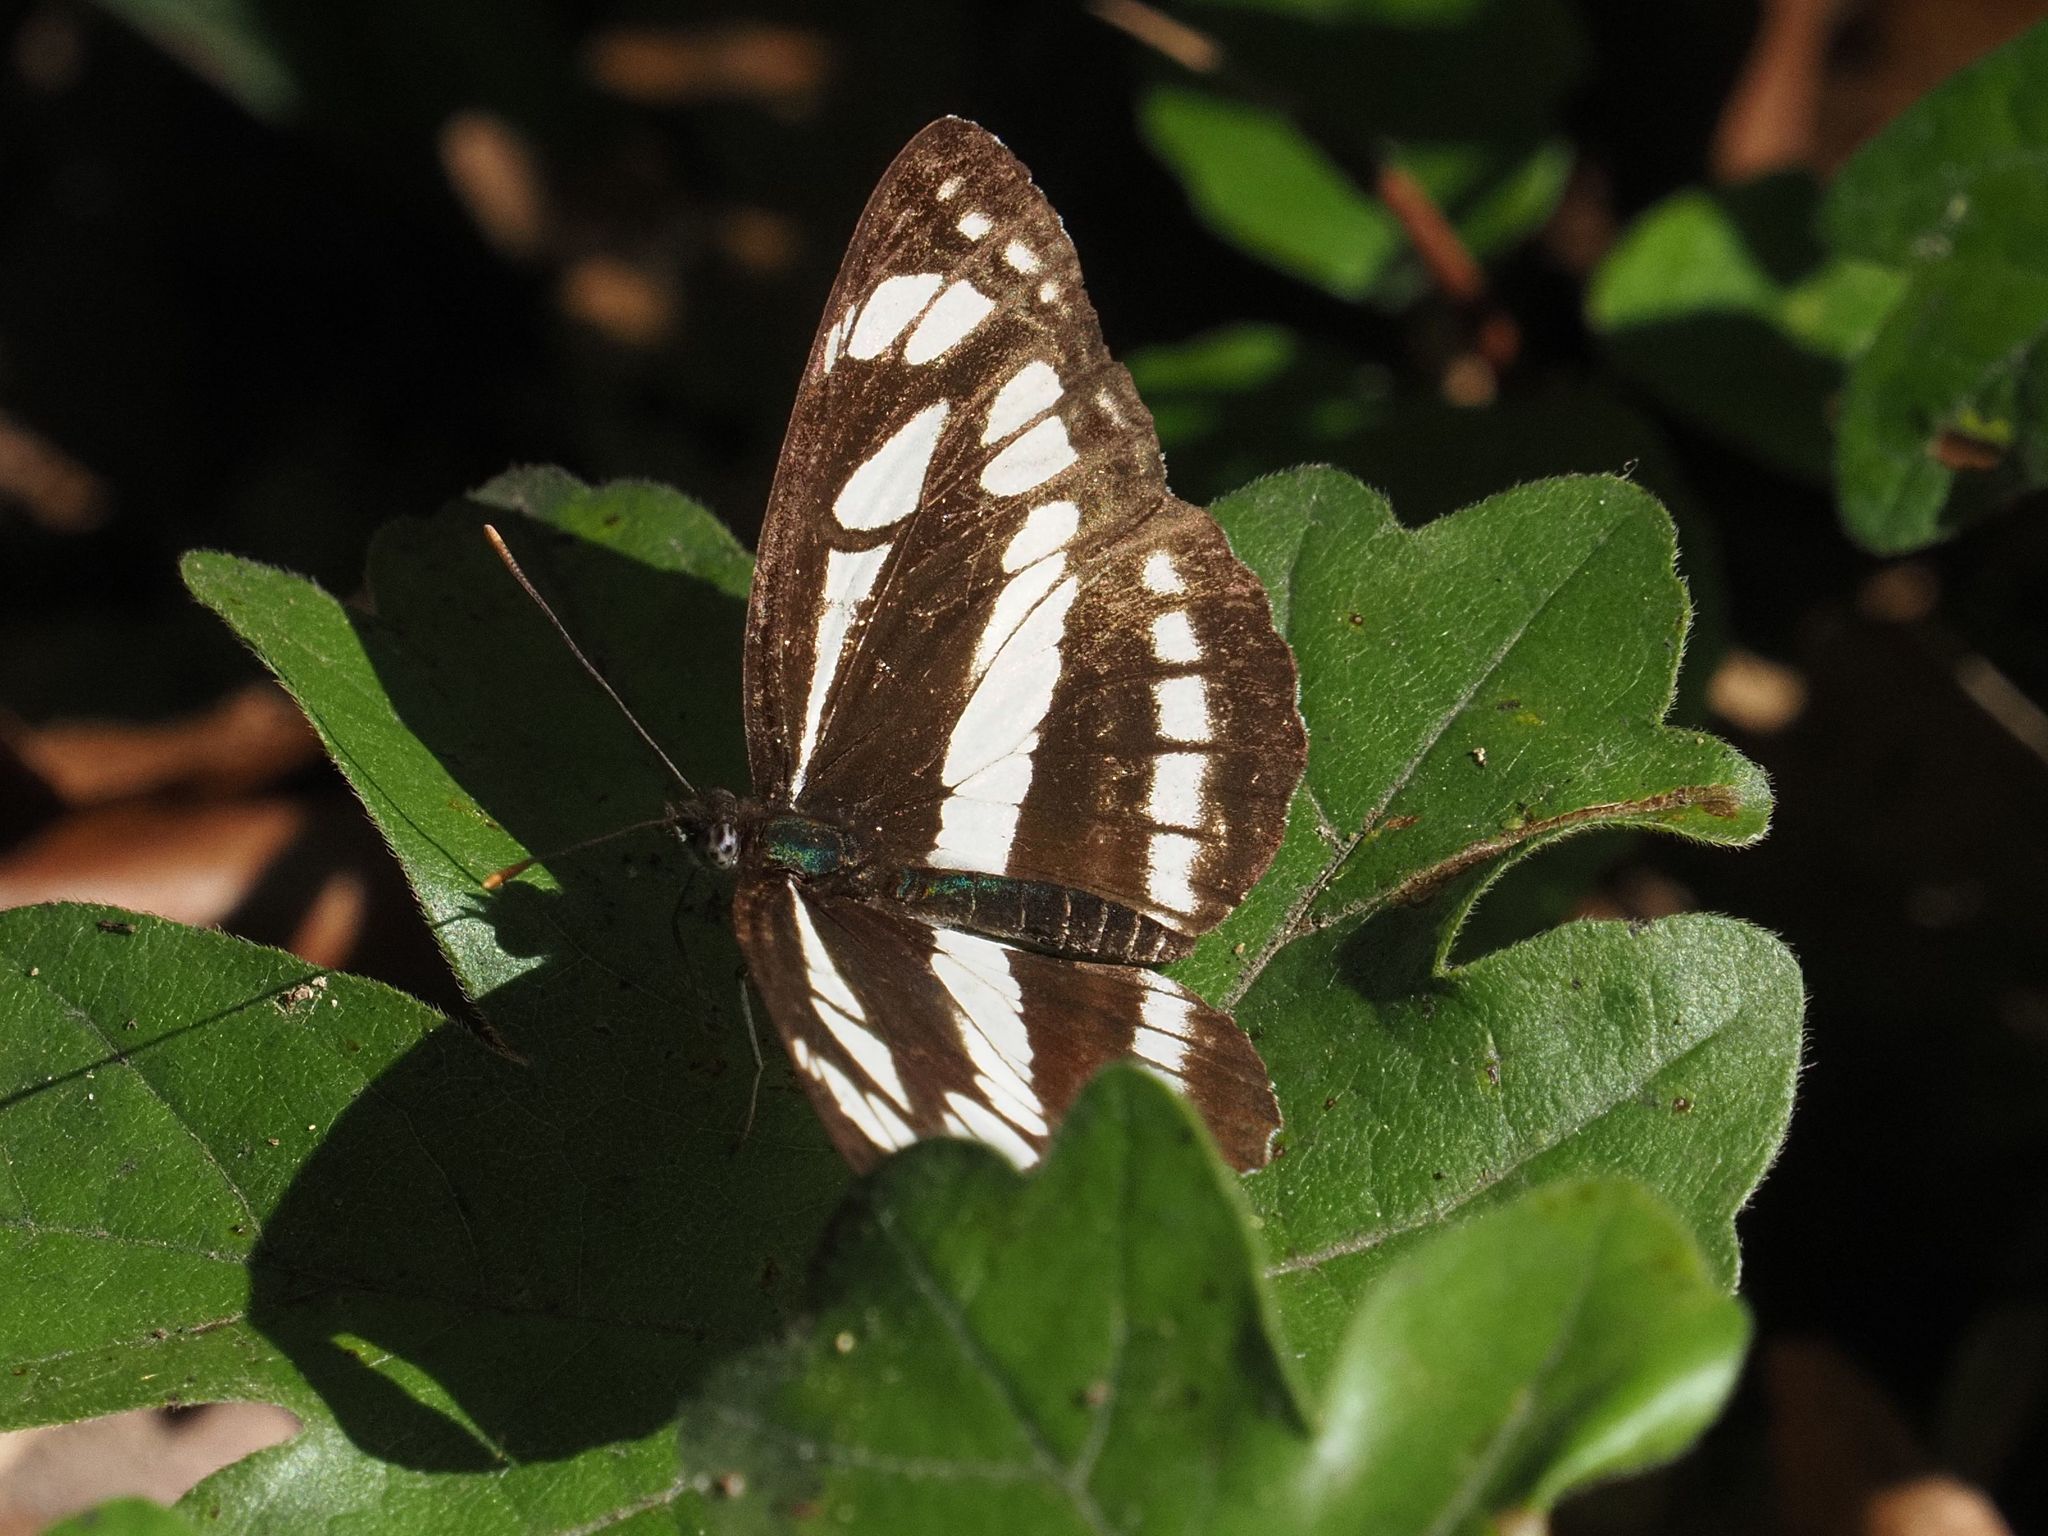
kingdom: Animalia
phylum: Arthropoda
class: Insecta
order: Lepidoptera
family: Nymphalidae
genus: Neptis
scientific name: Neptis sappho
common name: Common glider
